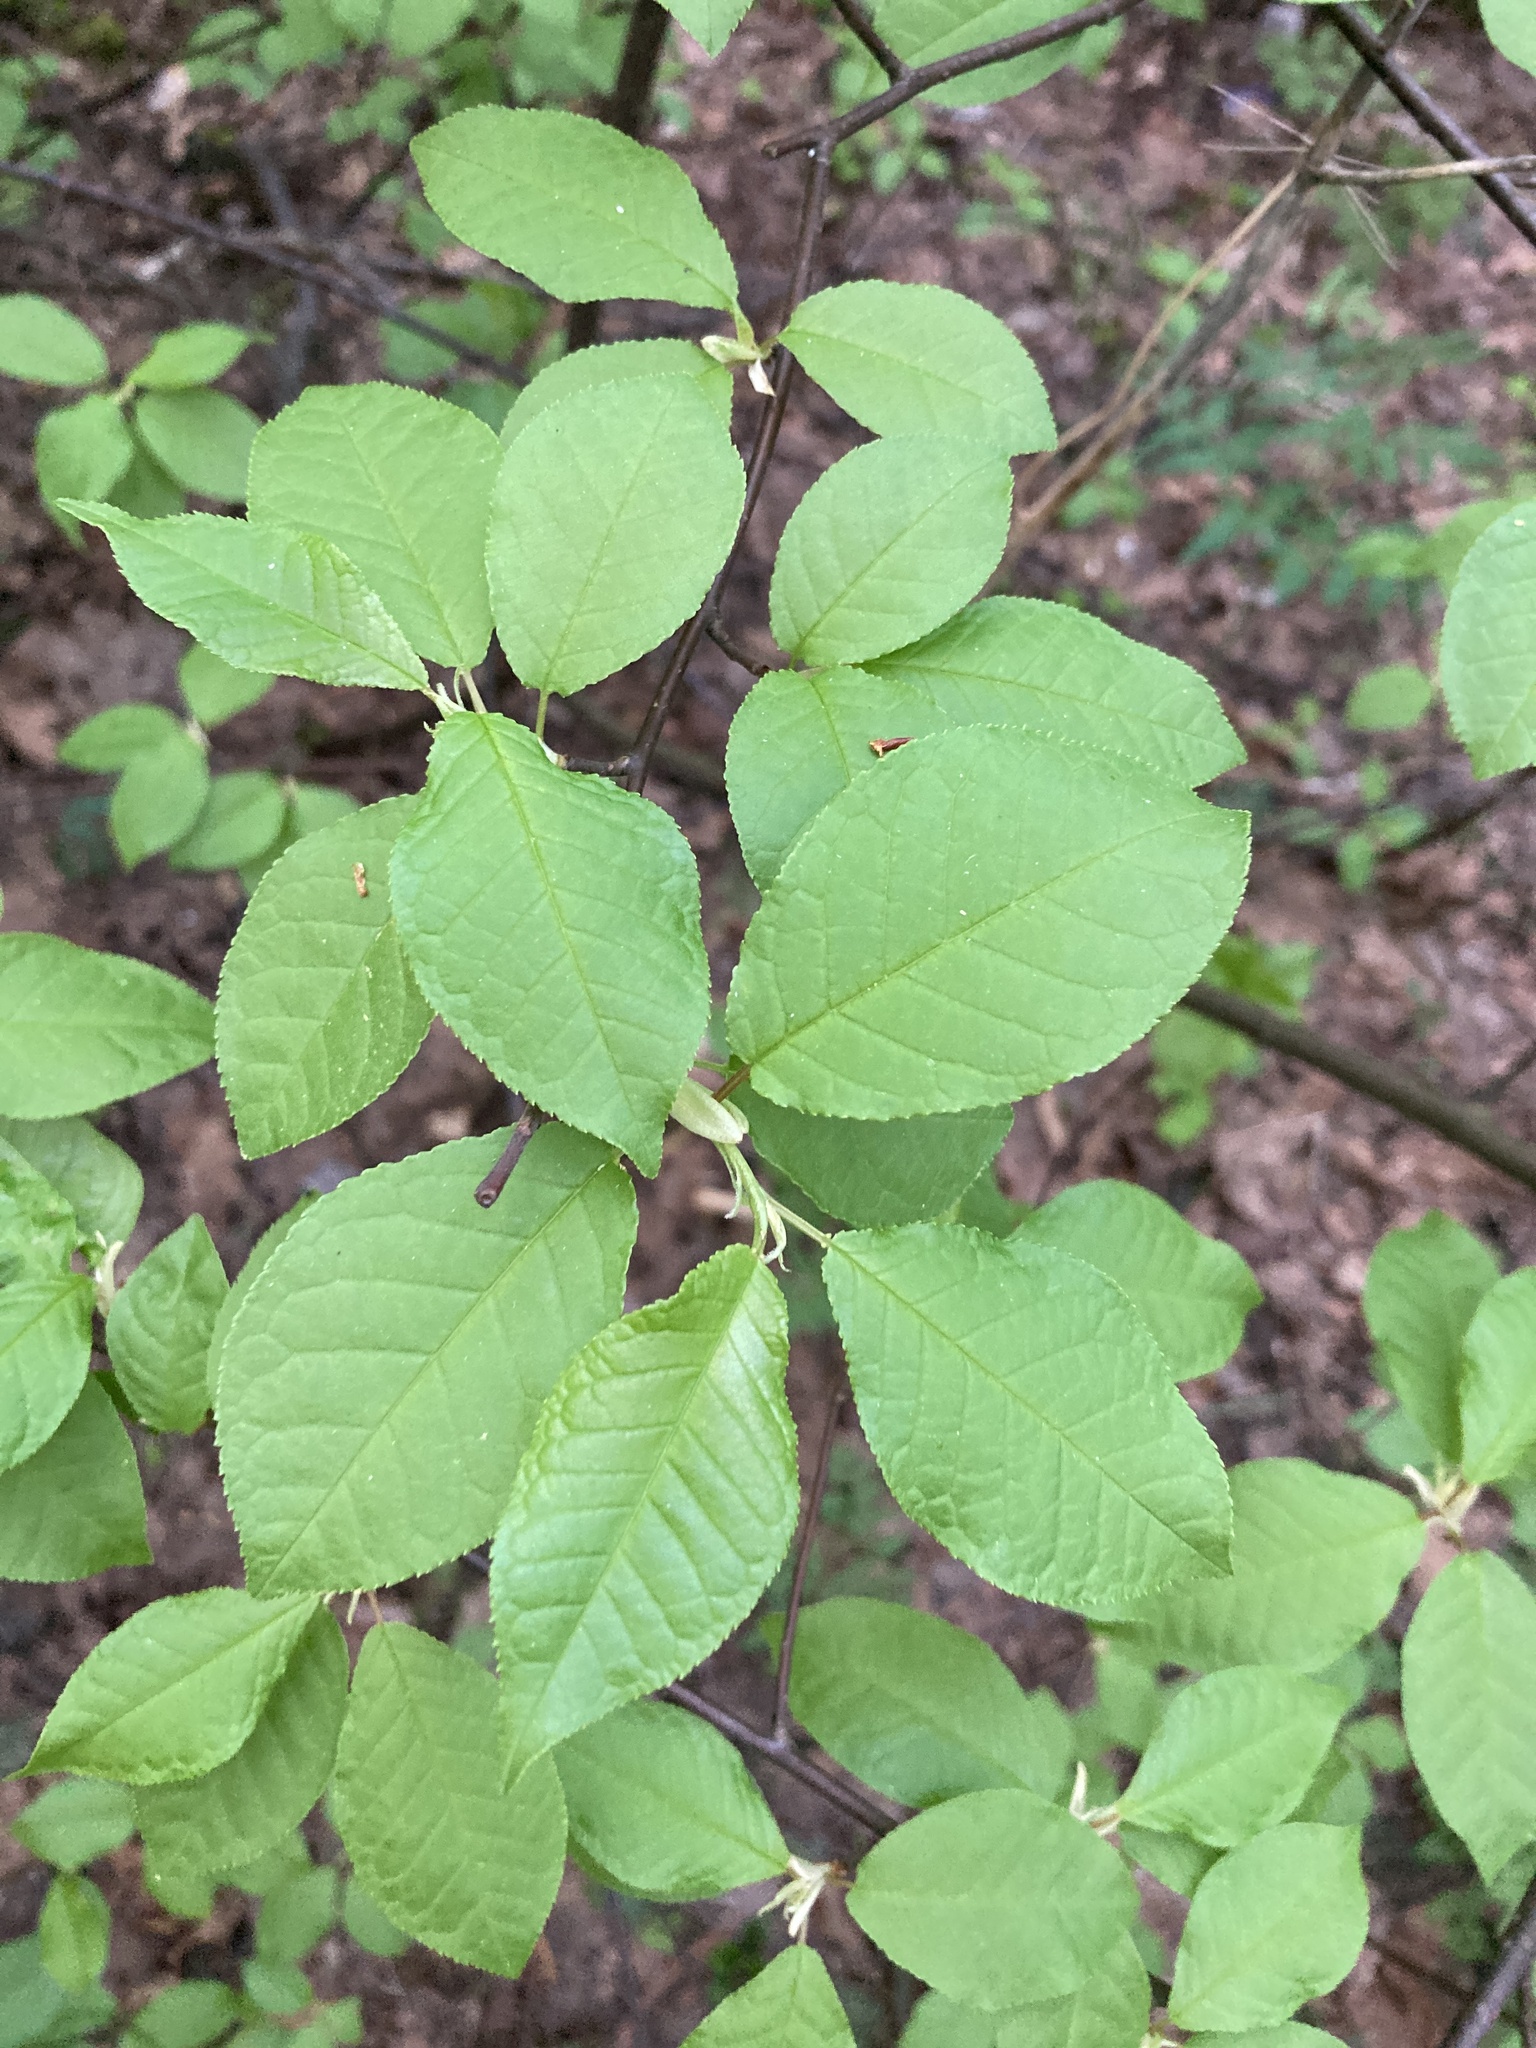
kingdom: Plantae
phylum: Tracheophyta
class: Magnoliopsida
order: Rosales
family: Rosaceae
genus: Prunus
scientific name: Prunus padus
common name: Bird cherry
